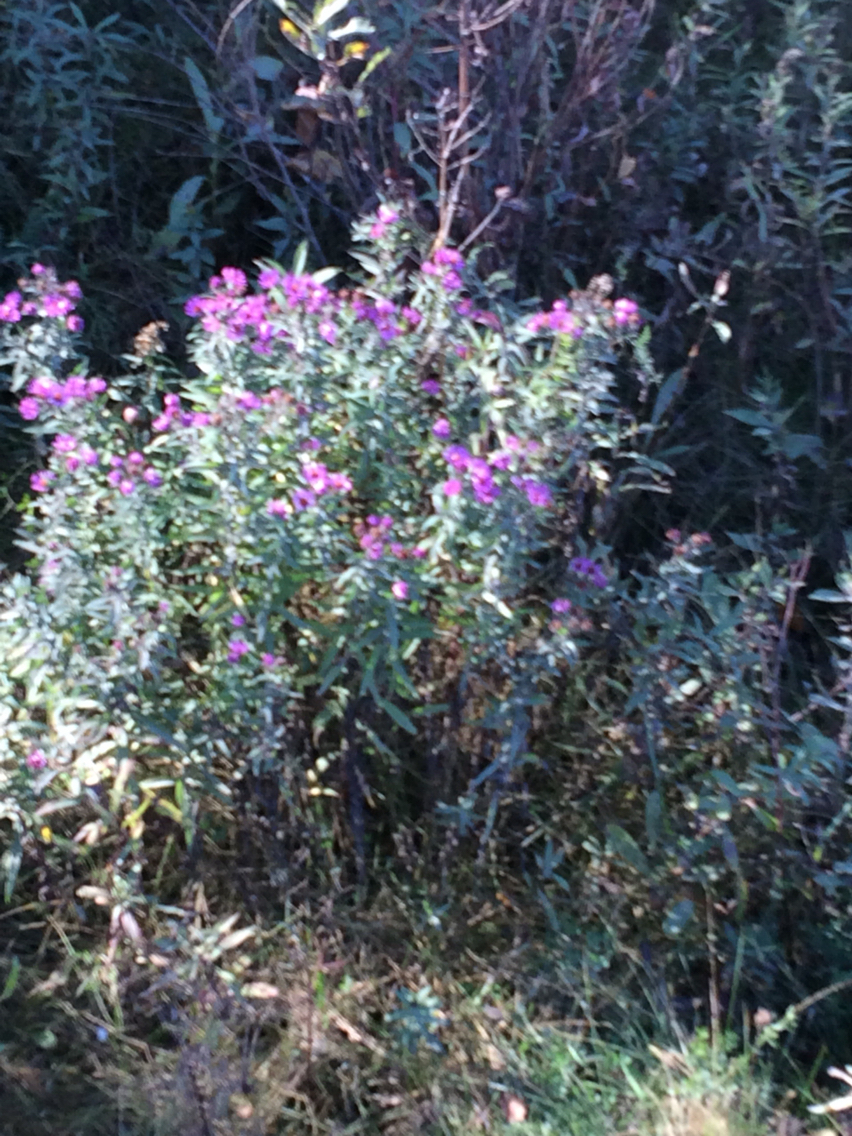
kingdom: Plantae
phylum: Tracheophyta
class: Magnoliopsida
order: Asterales
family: Asteraceae
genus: Symphyotrichum
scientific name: Symphyotrichum novae-angliae
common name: Michaelmas daisy
